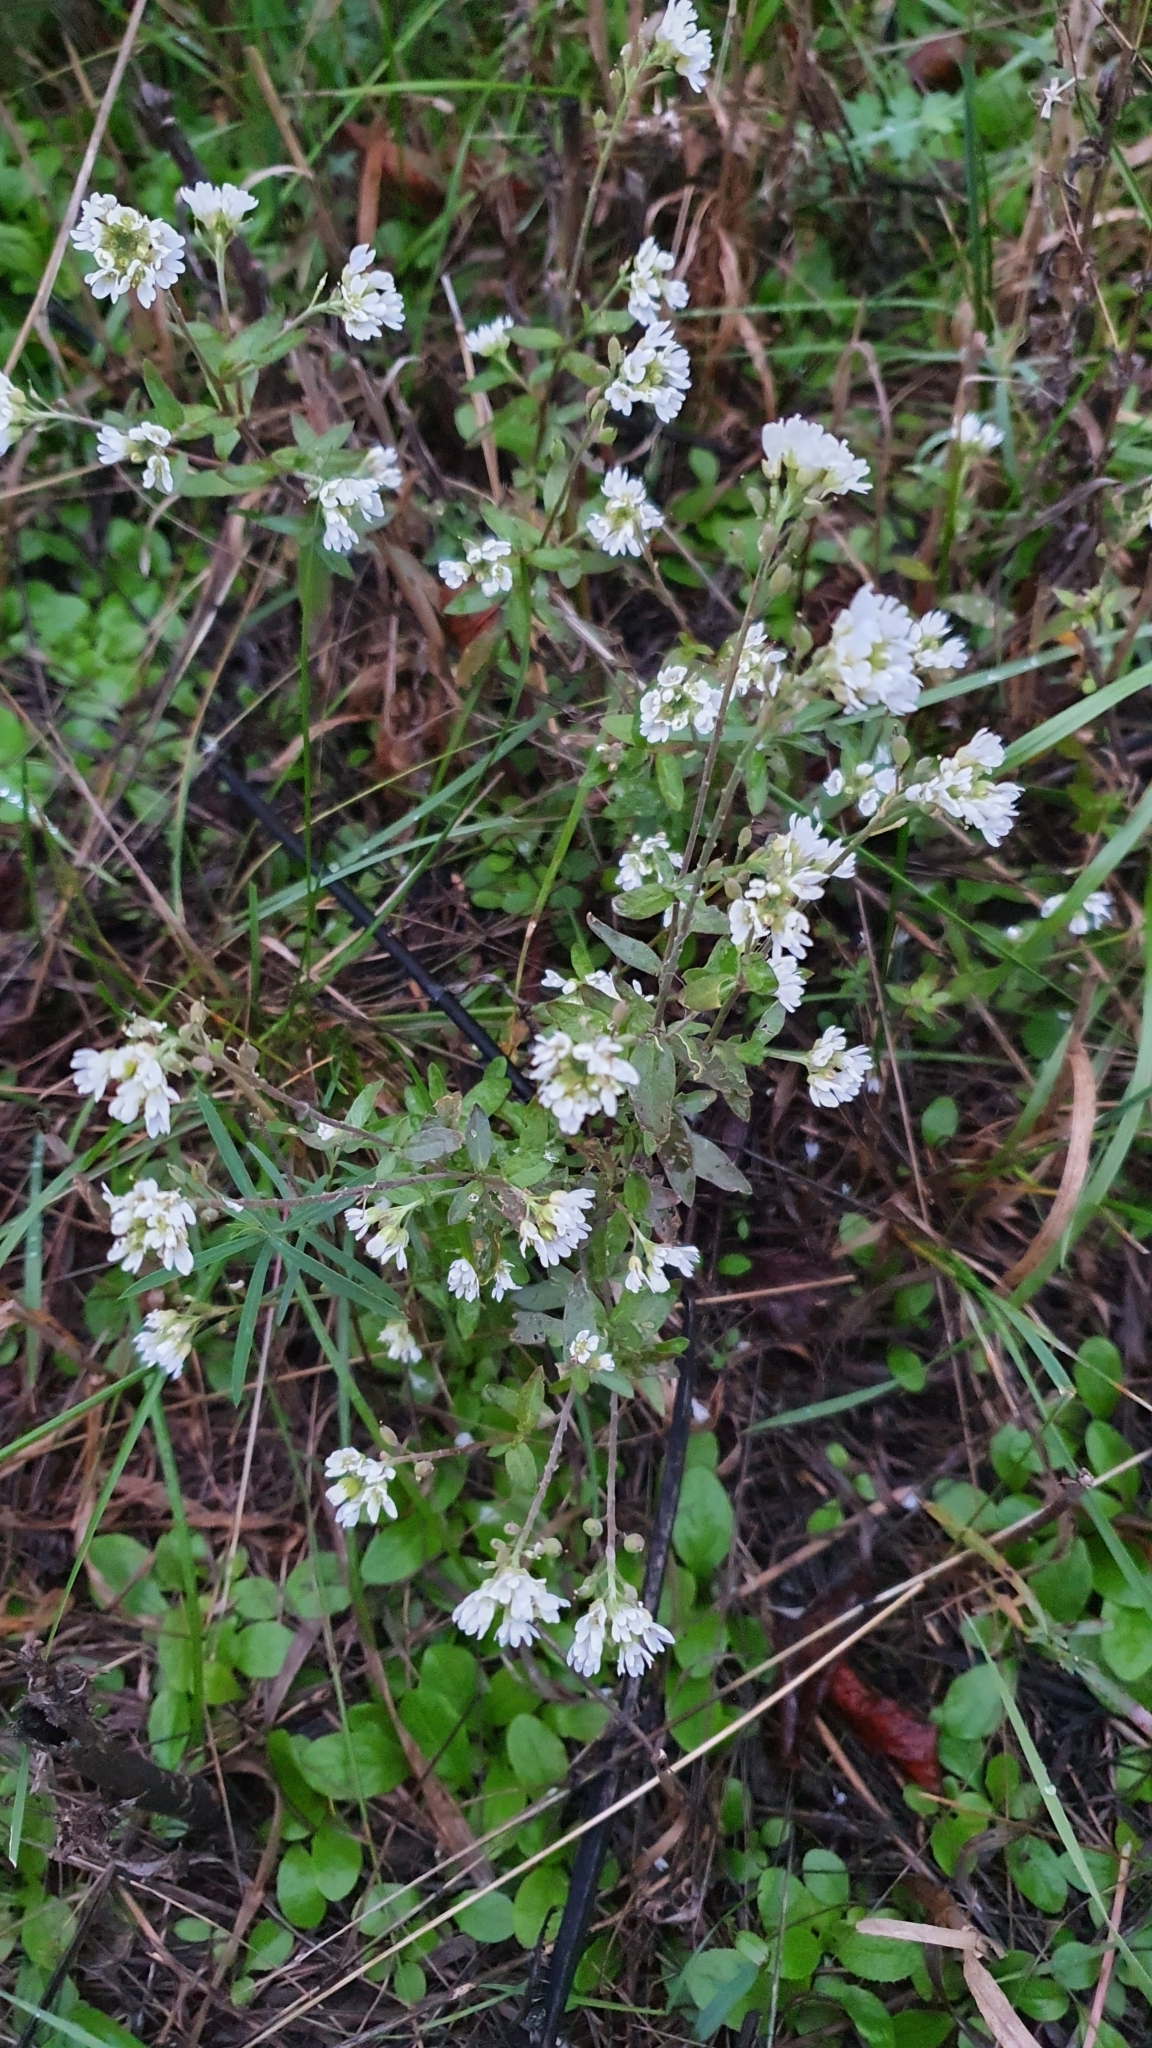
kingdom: Plantae
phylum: Tracheophyta
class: Magnoliopsida
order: Brassicales
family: Brassicaceae
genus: Berteroa
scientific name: Berteroa incana
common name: Hoary alison
